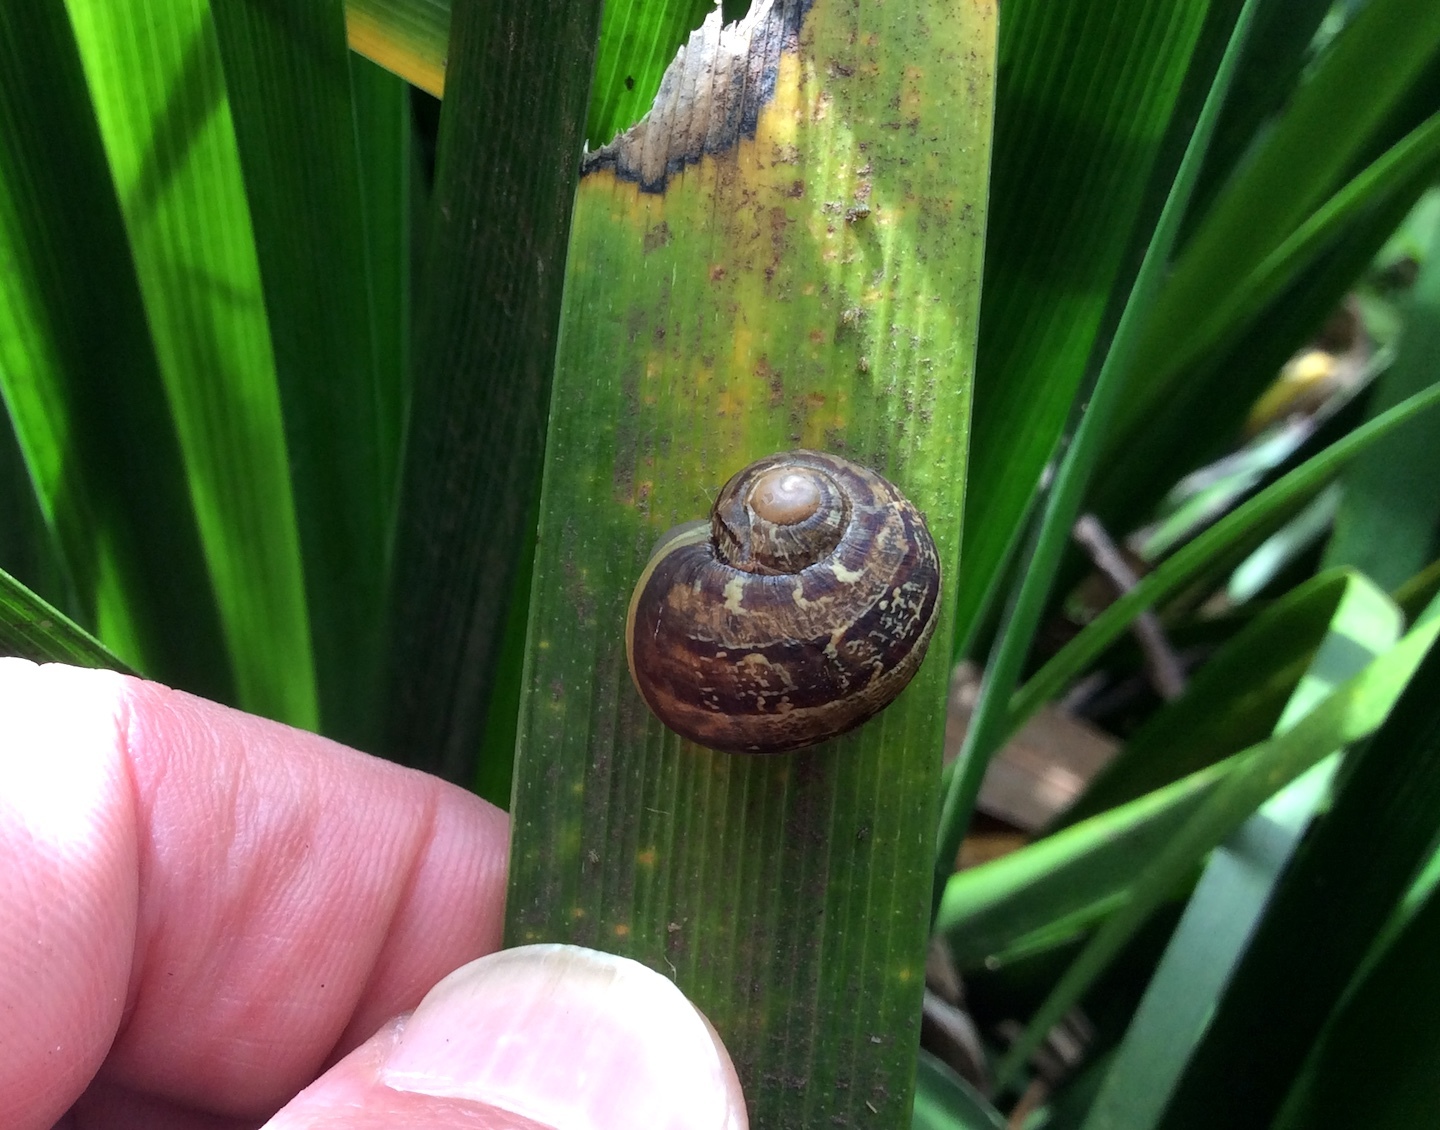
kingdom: Animalia
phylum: Mollusca
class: Gastropoda
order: Stylommatophora
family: Helicidae
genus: Cornu
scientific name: Cornu aspersum
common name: Brown garden snail
